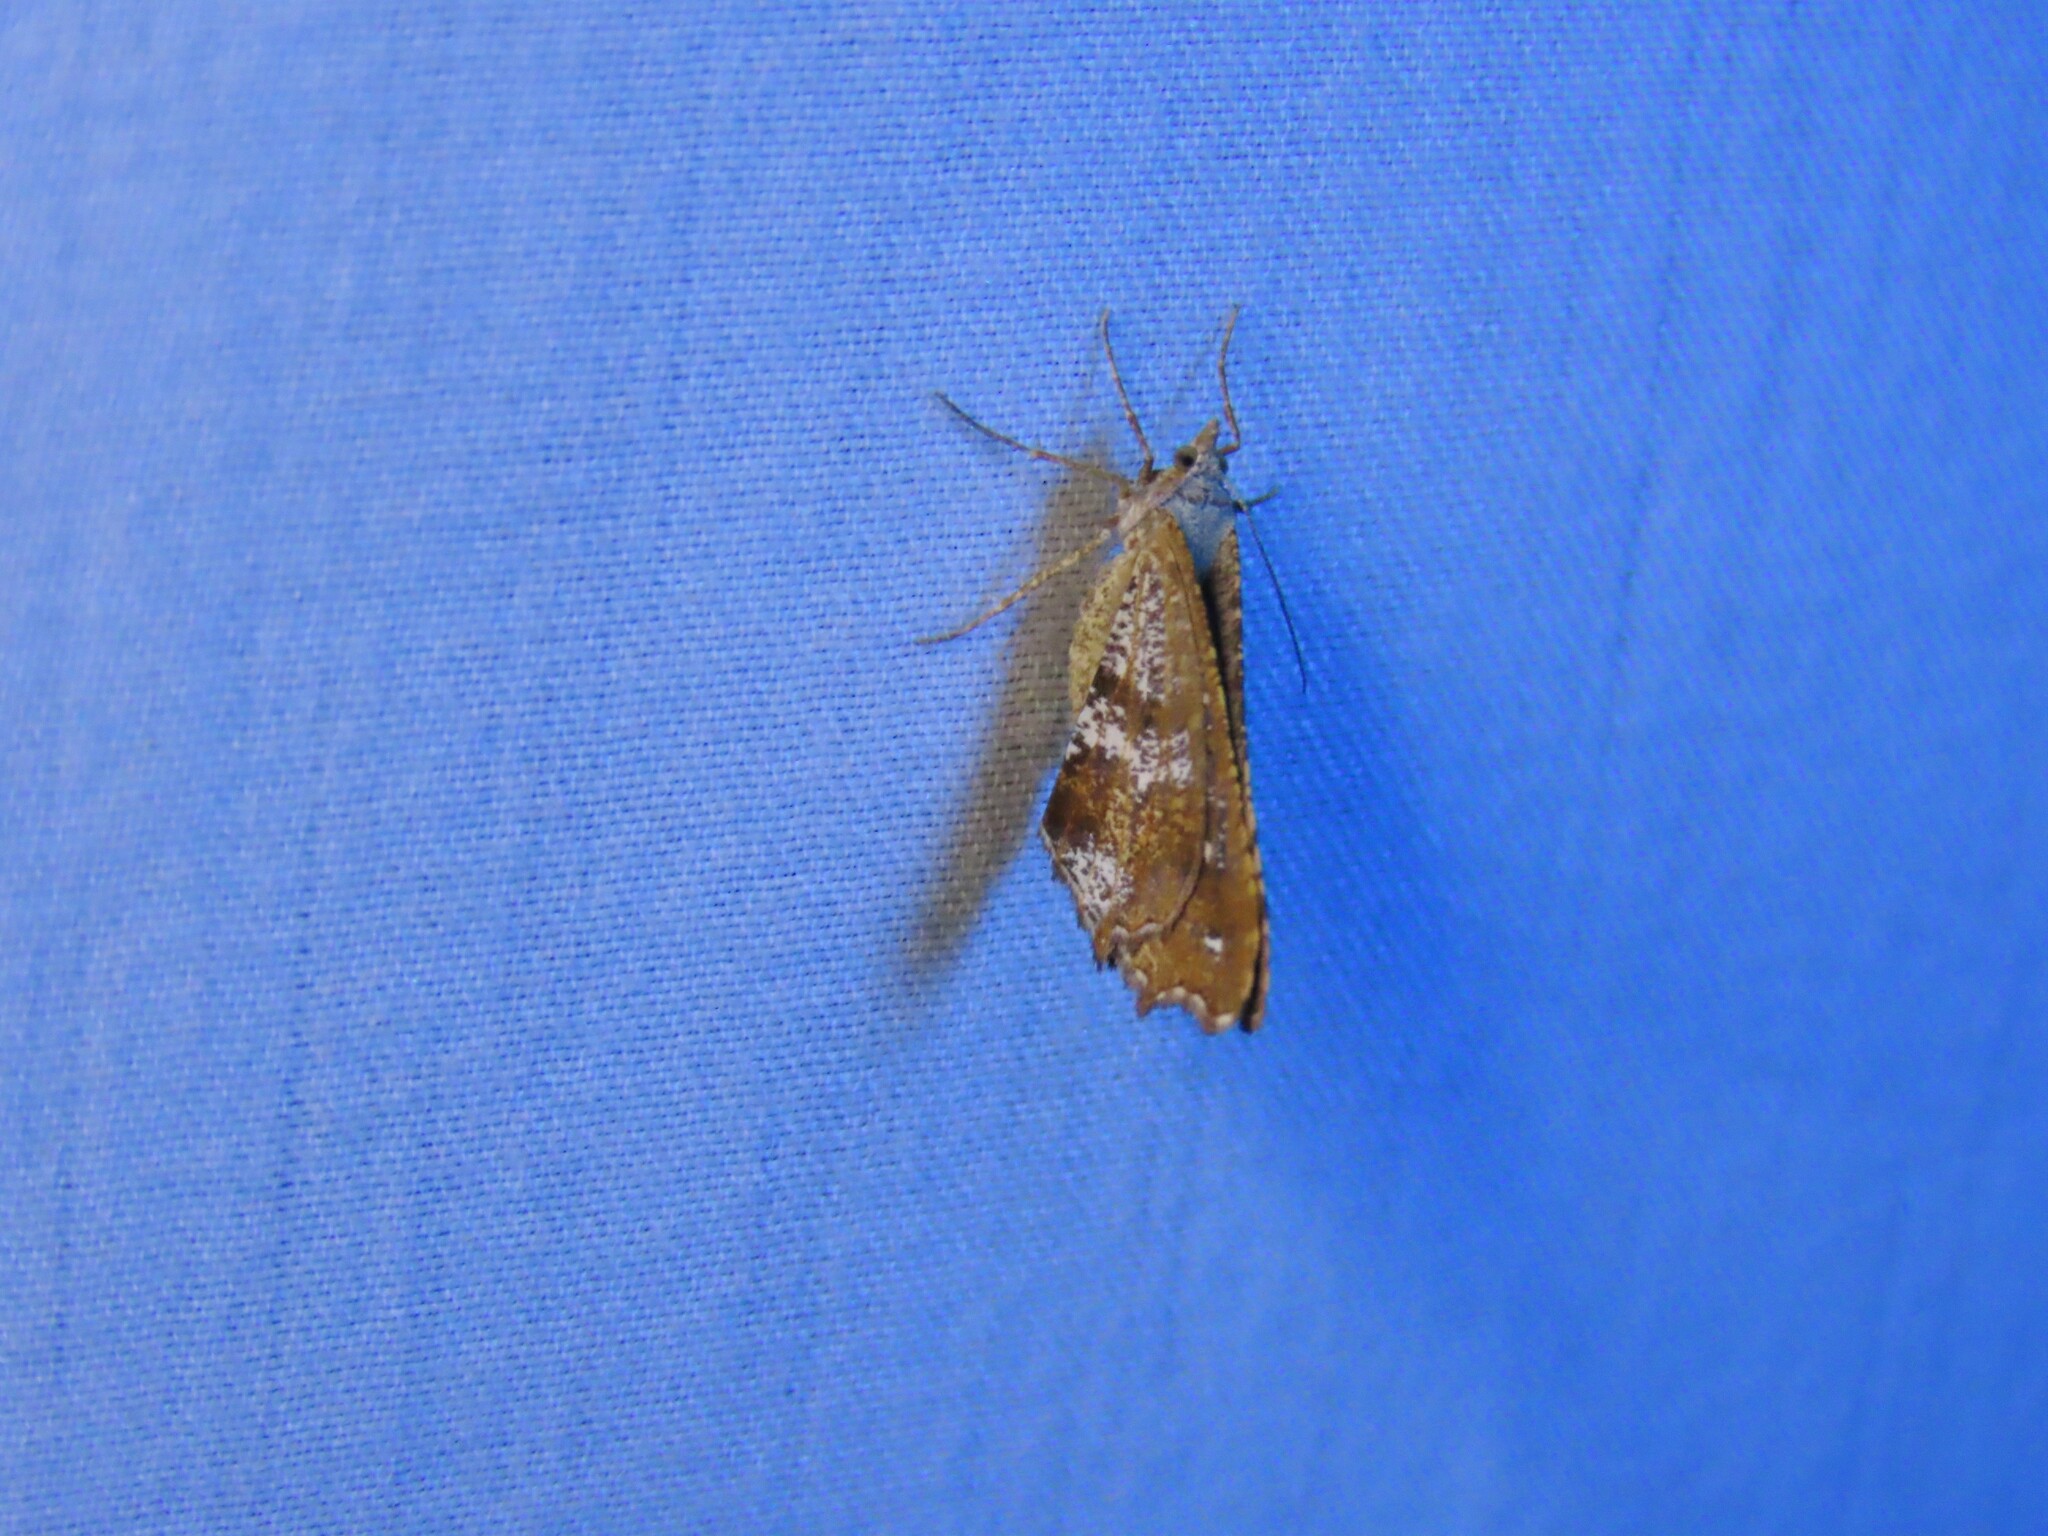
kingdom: Animalia
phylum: Arthropoda
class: Insecta
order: Lepidoptera
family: Geometridae
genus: Dissomorphia
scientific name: Dissomorphia australiaria
